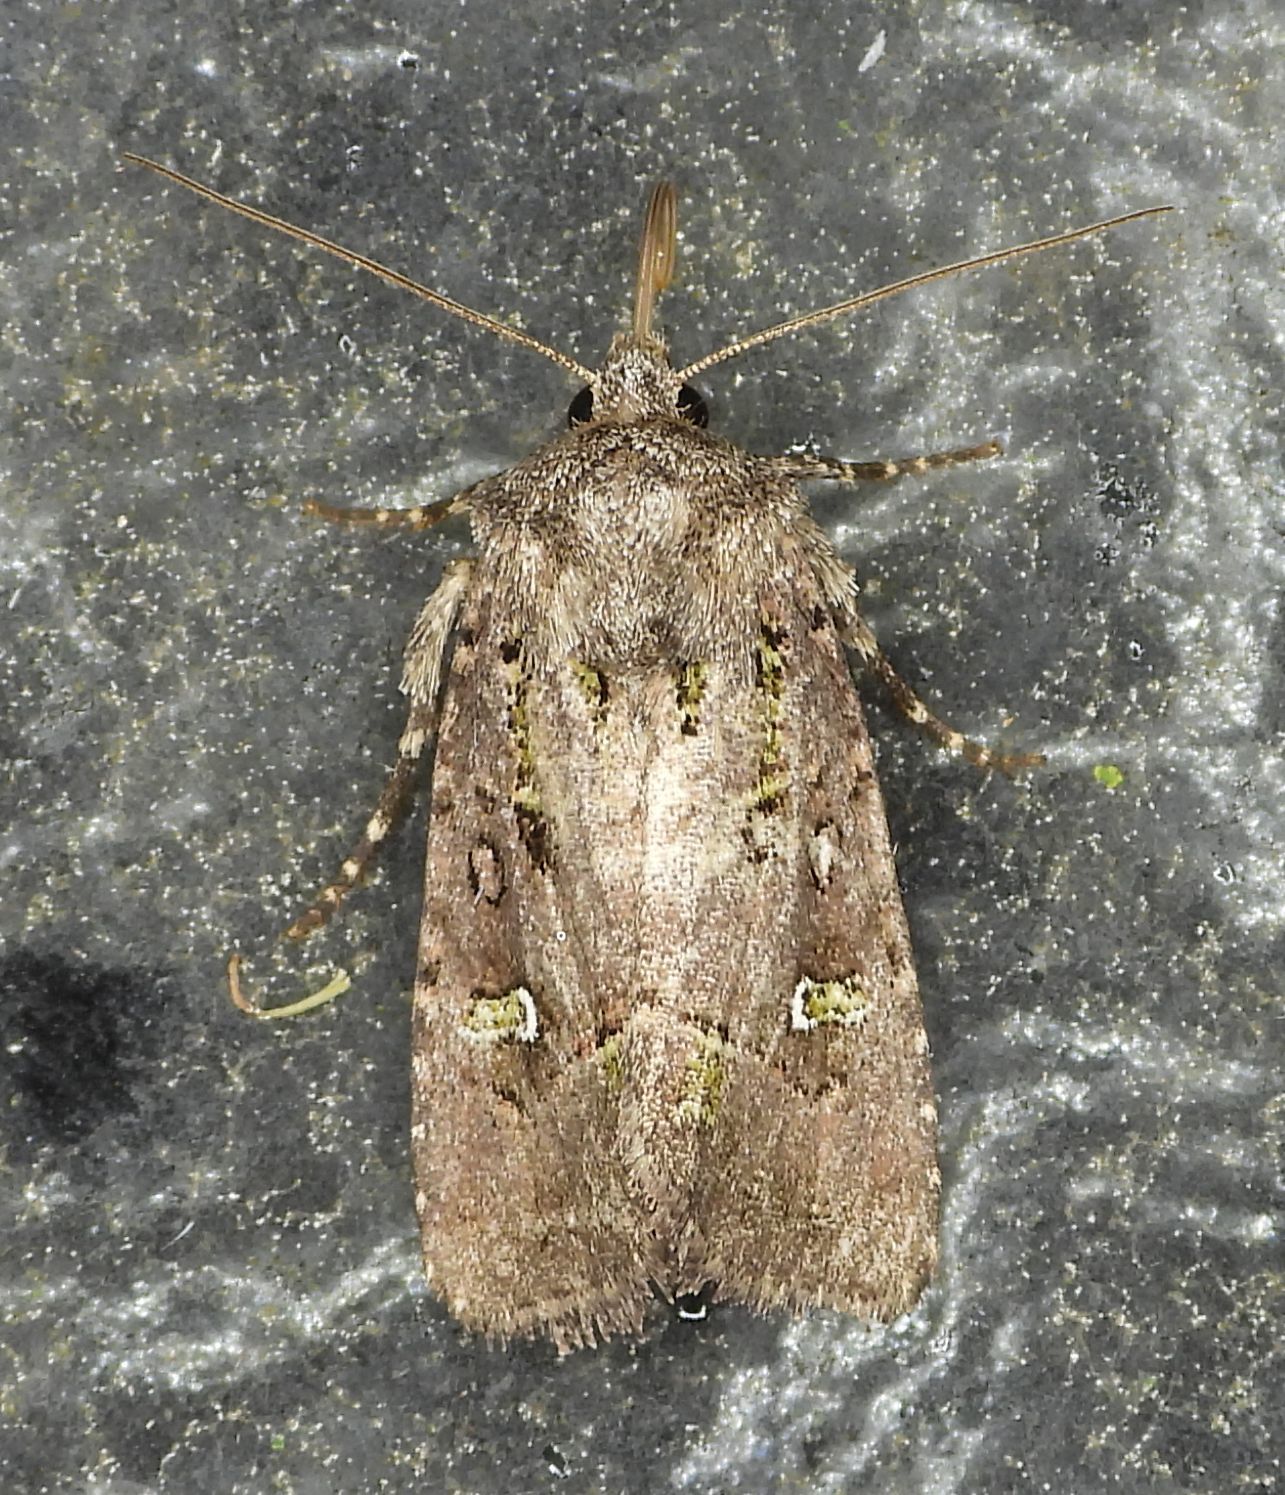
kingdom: Animalia
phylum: Arthropoda
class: Insecta
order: Lepidoptera
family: Noctuidae
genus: Lacinipolia
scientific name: Lacinipolia renigera
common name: Kidney-spotted minor
